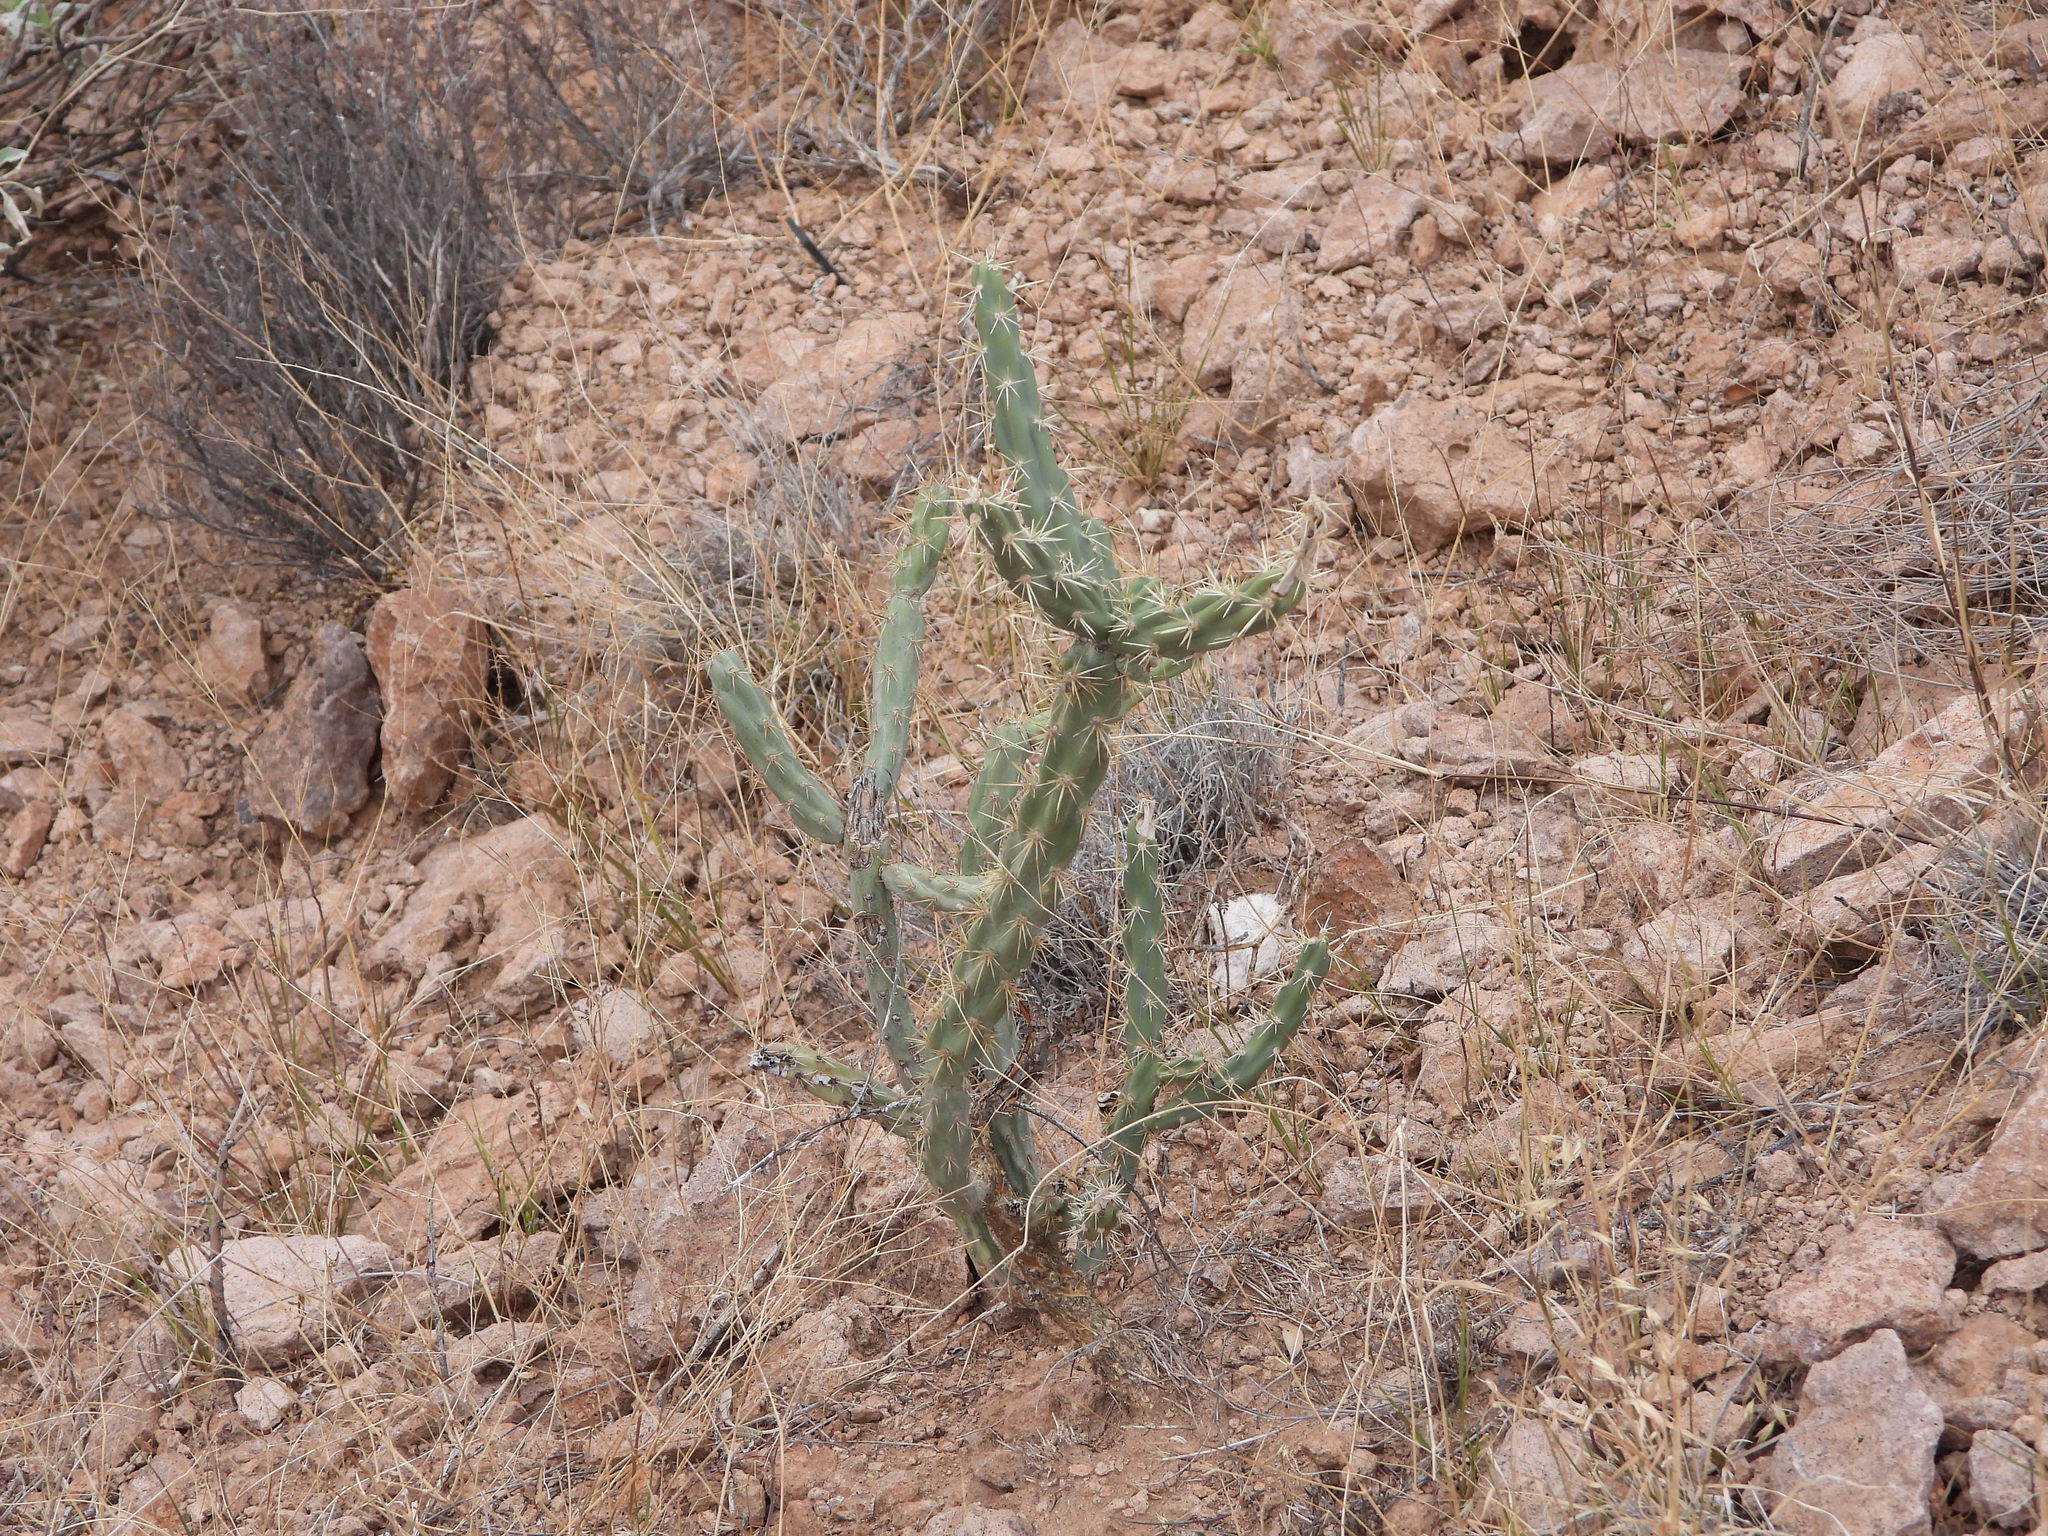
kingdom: Plantae
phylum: Tracheophyta
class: Magnoliopsida
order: Caryophyllales
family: Cactaceae
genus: Cylindropuntia
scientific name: Cylindropuntia acanthocarpa
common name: Buckhorn cholla
